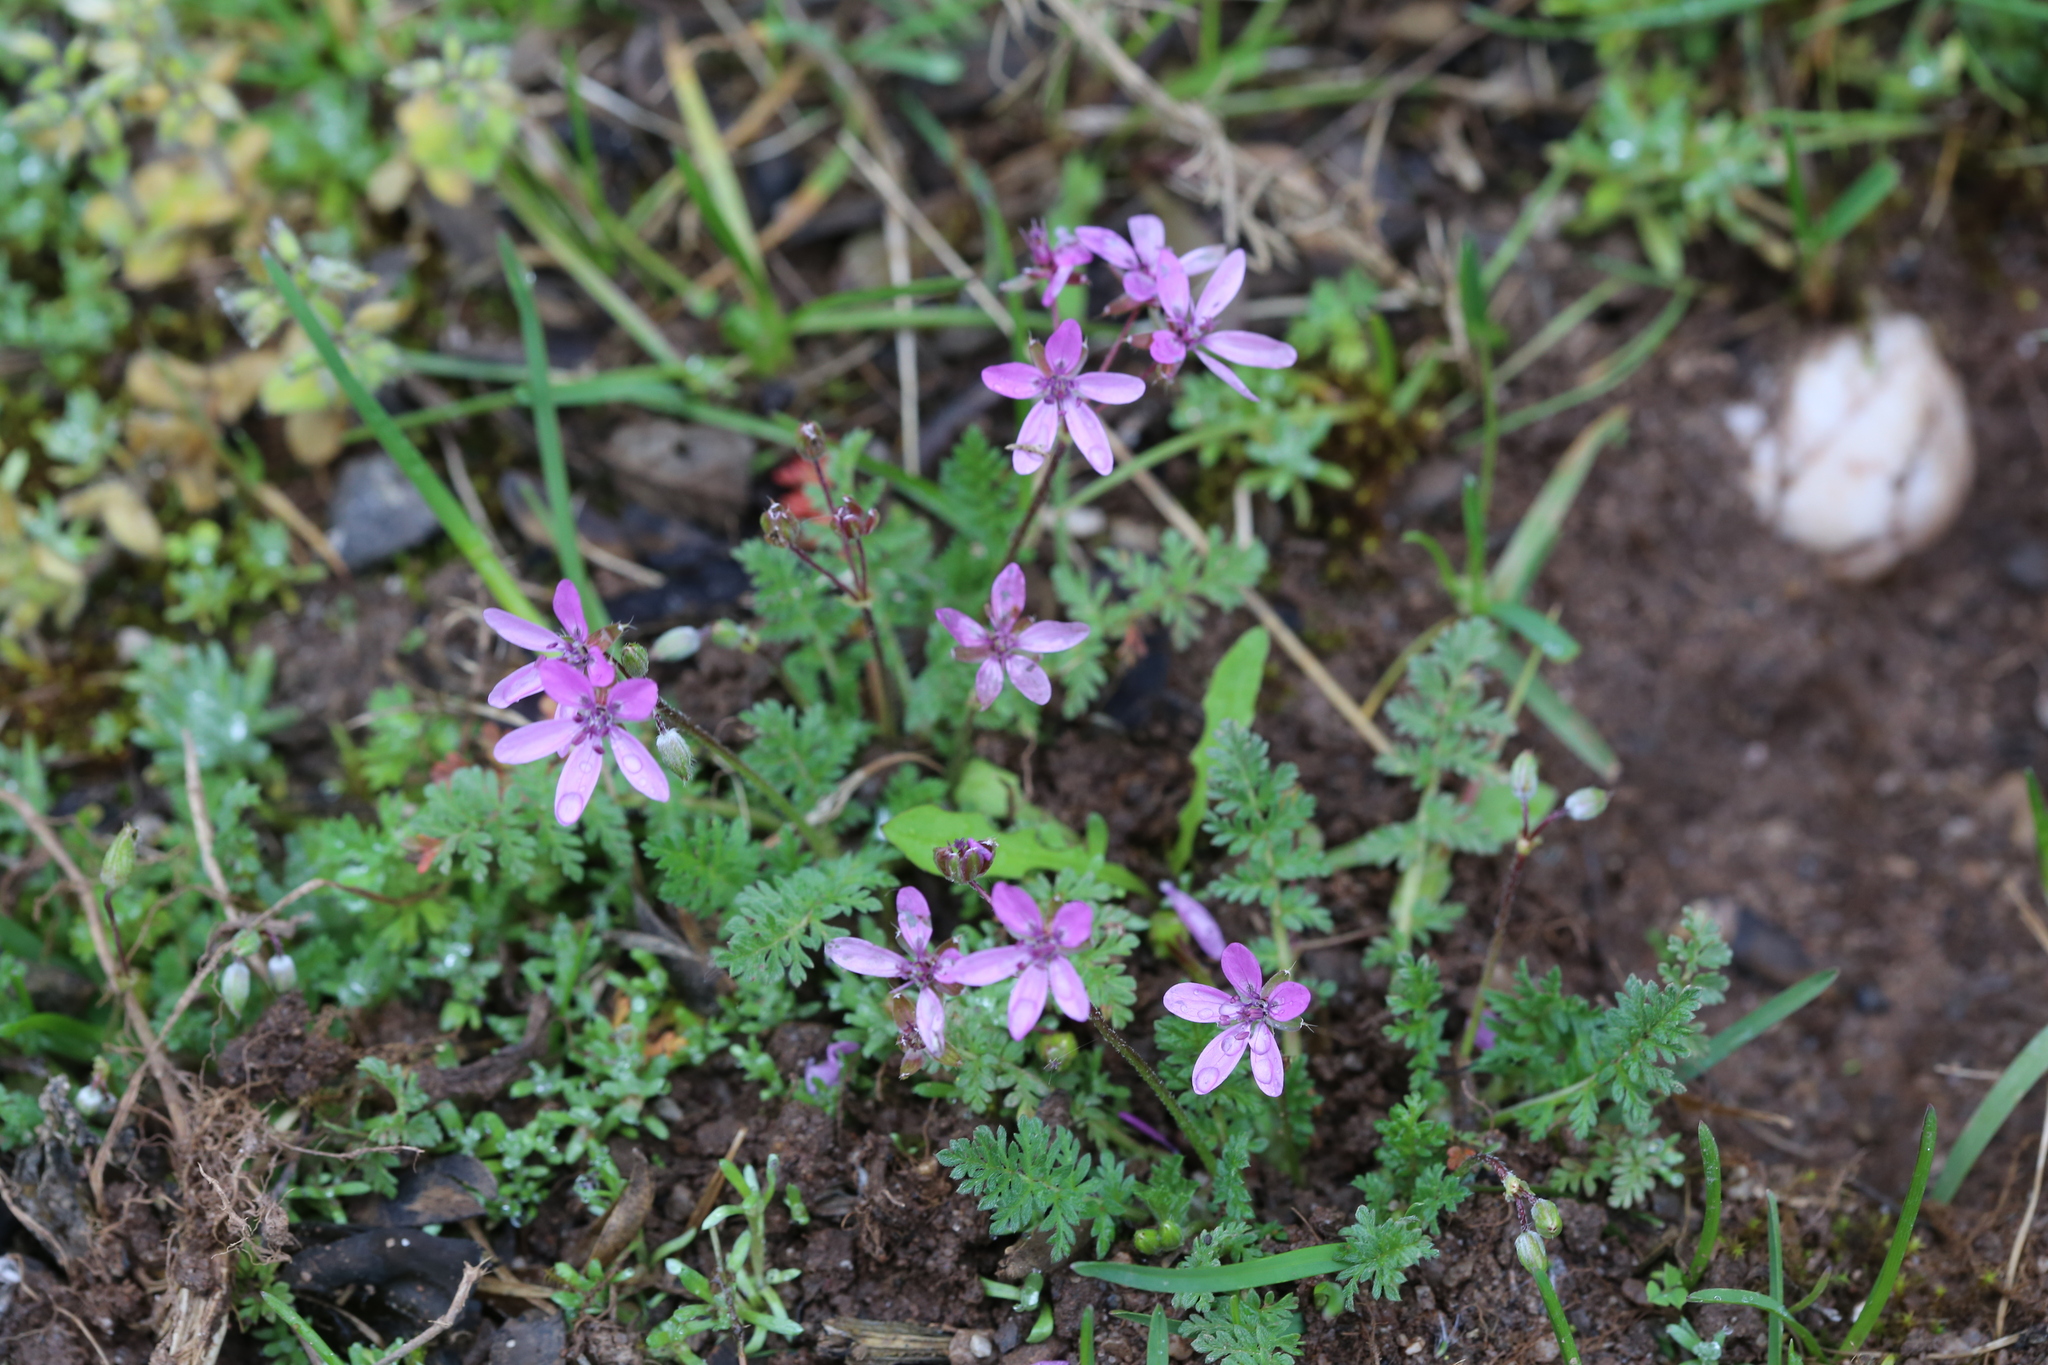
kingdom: Plantae
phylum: Tracheophyta
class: Magnoliopsida
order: Geraniales
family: Geraniaceae
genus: Erodium
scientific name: Erodium cicutarium
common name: Common stork's-bill
